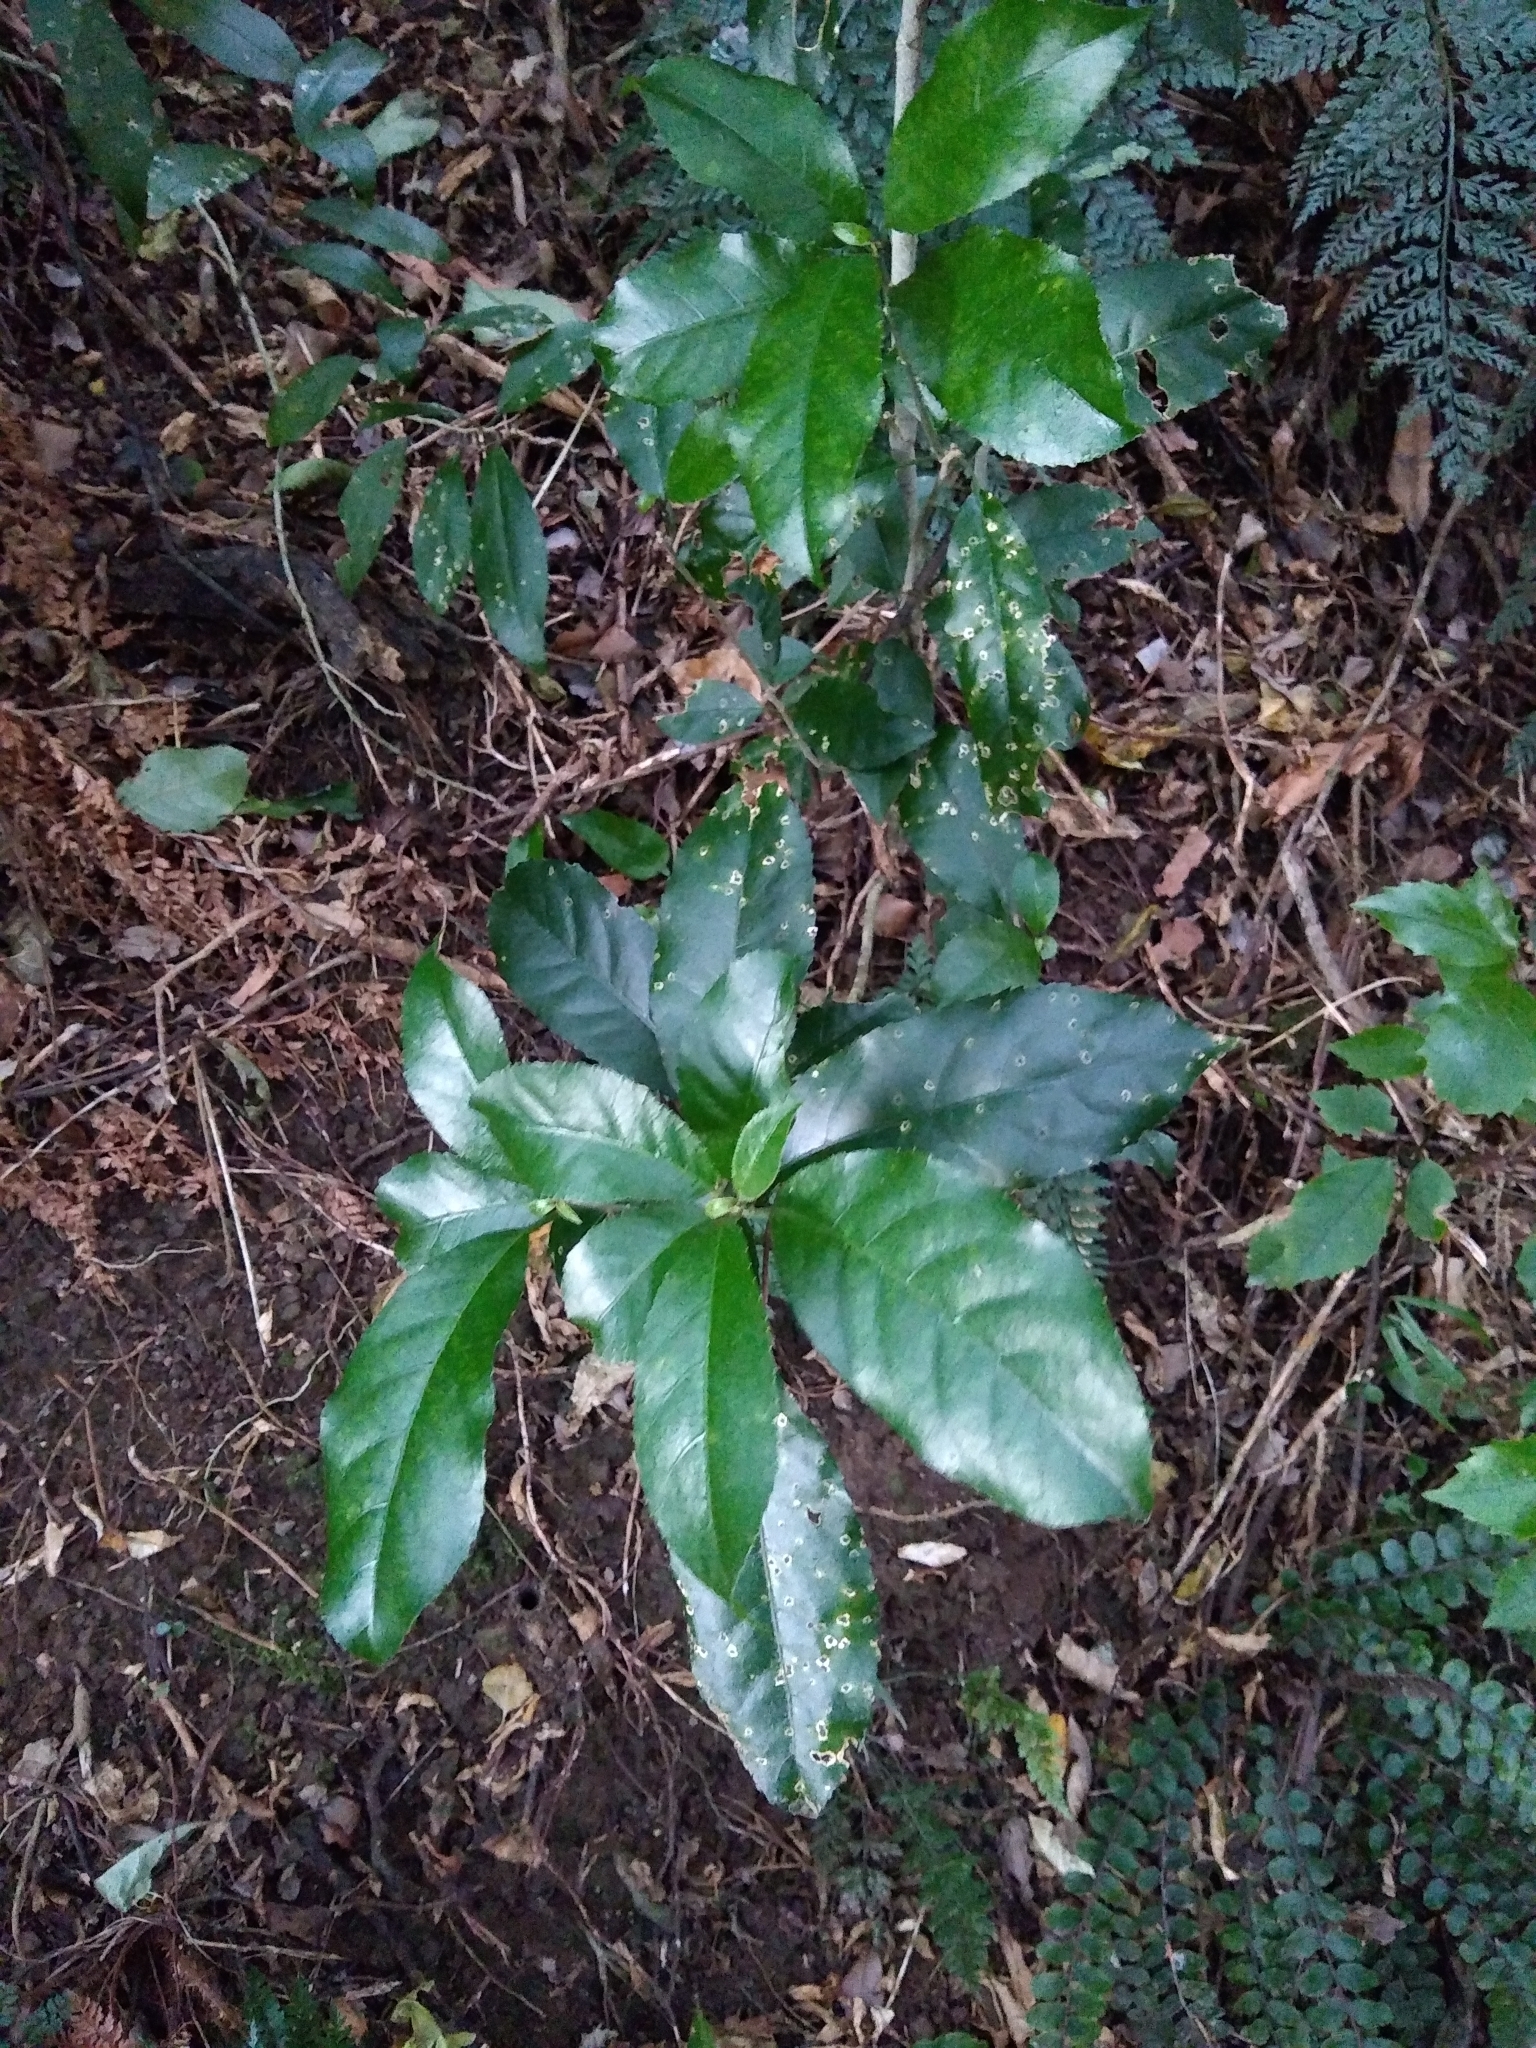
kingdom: Plantae
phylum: Tracheophyta
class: Magnoliopsida
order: Malpighiales
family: Violaceae
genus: Melicytus
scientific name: Melicytus ramiflorus
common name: Mahoe
